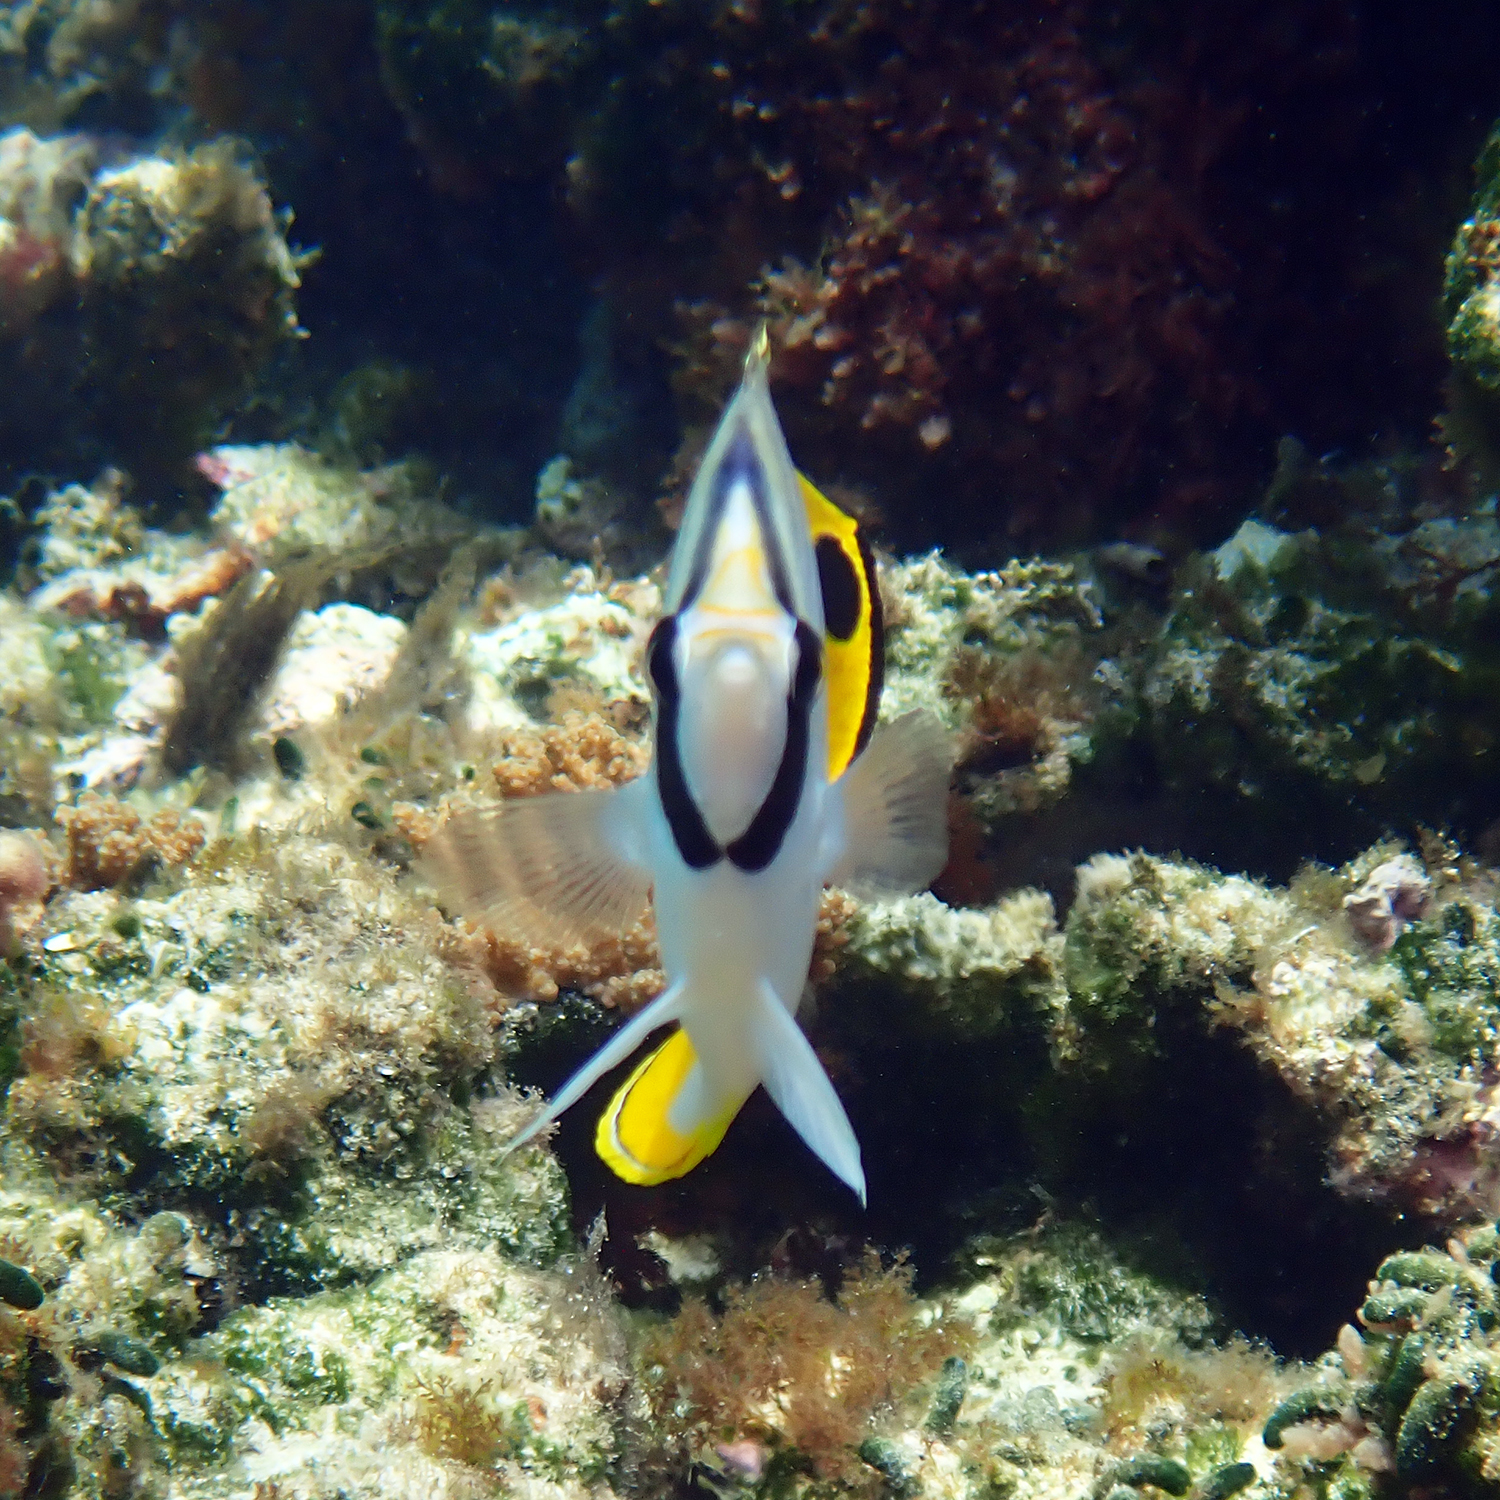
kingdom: Animalia
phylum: Chordata
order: Perciformes
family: Chaetodontidae
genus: Chaetodon
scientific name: Chaetodon auriga
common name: Threadfin butterflyfish
